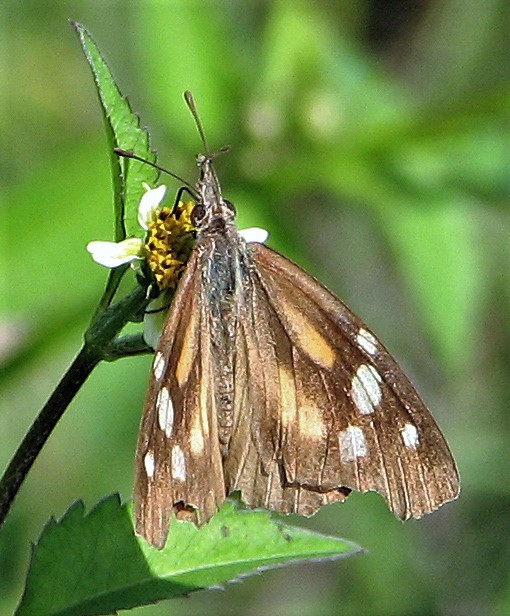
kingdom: Animalia
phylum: Arthropoda
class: Insecta
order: Lepidoptera
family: Nymphalidae
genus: Libytheana
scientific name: Libytheana carinenta
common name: American snout
